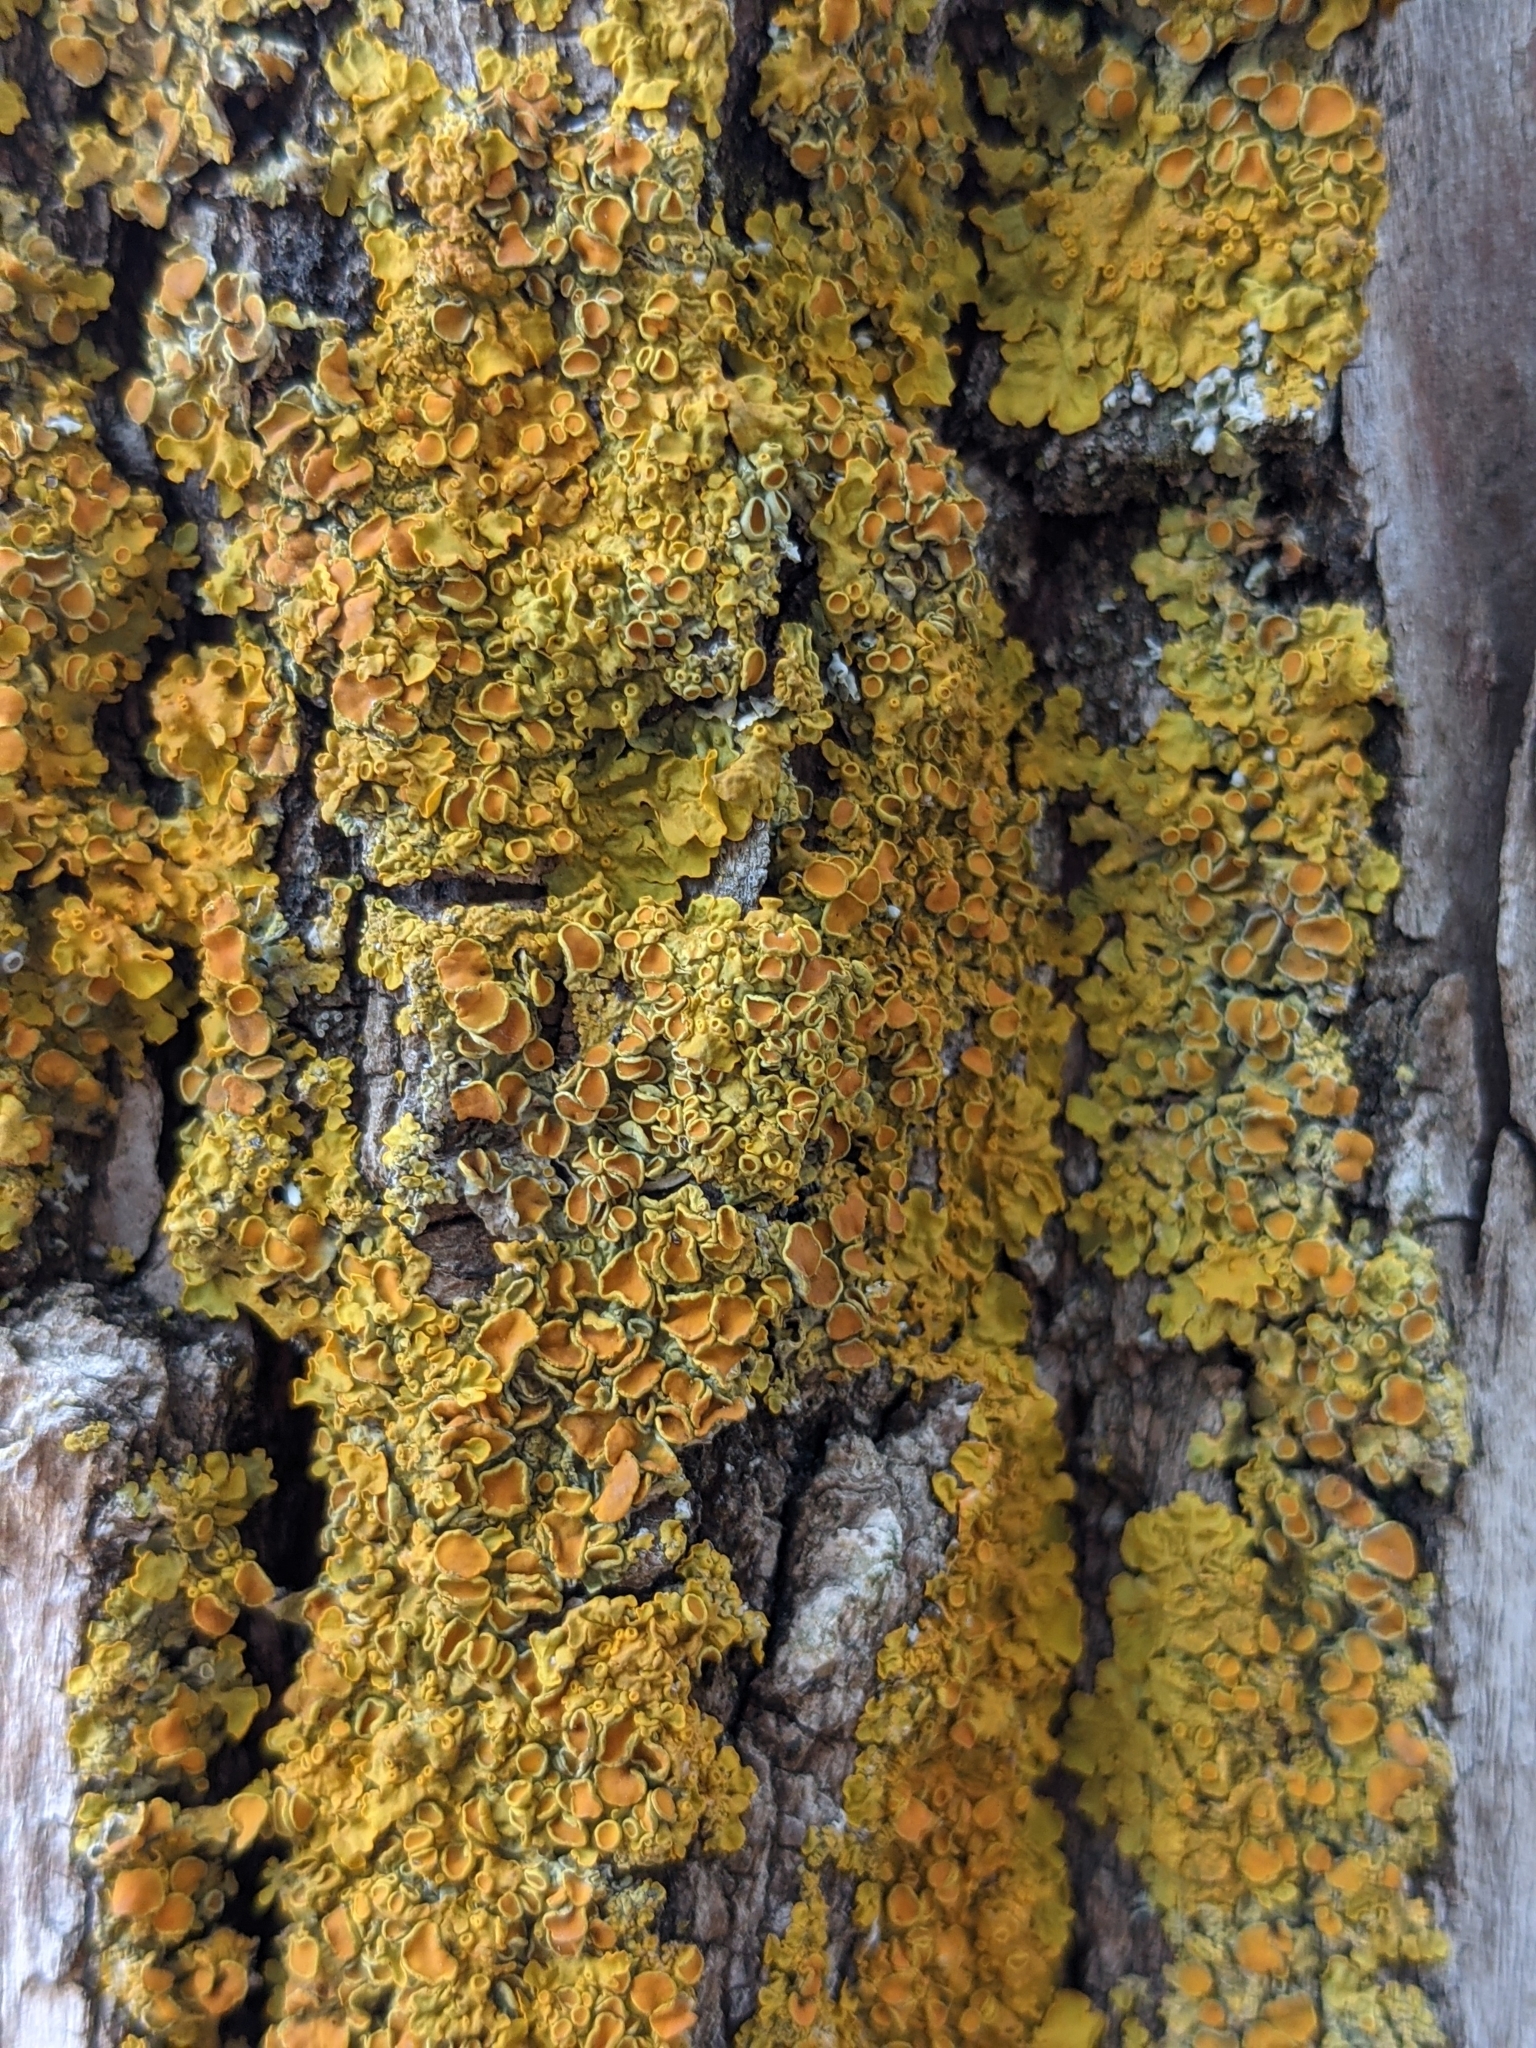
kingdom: Fungi
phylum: Ascomycota
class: Lecanoromycetes
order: Teloschistales
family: Teloschistaceae
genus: Xanthoria
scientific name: Xanthoria parietina
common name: Common orange lichen
